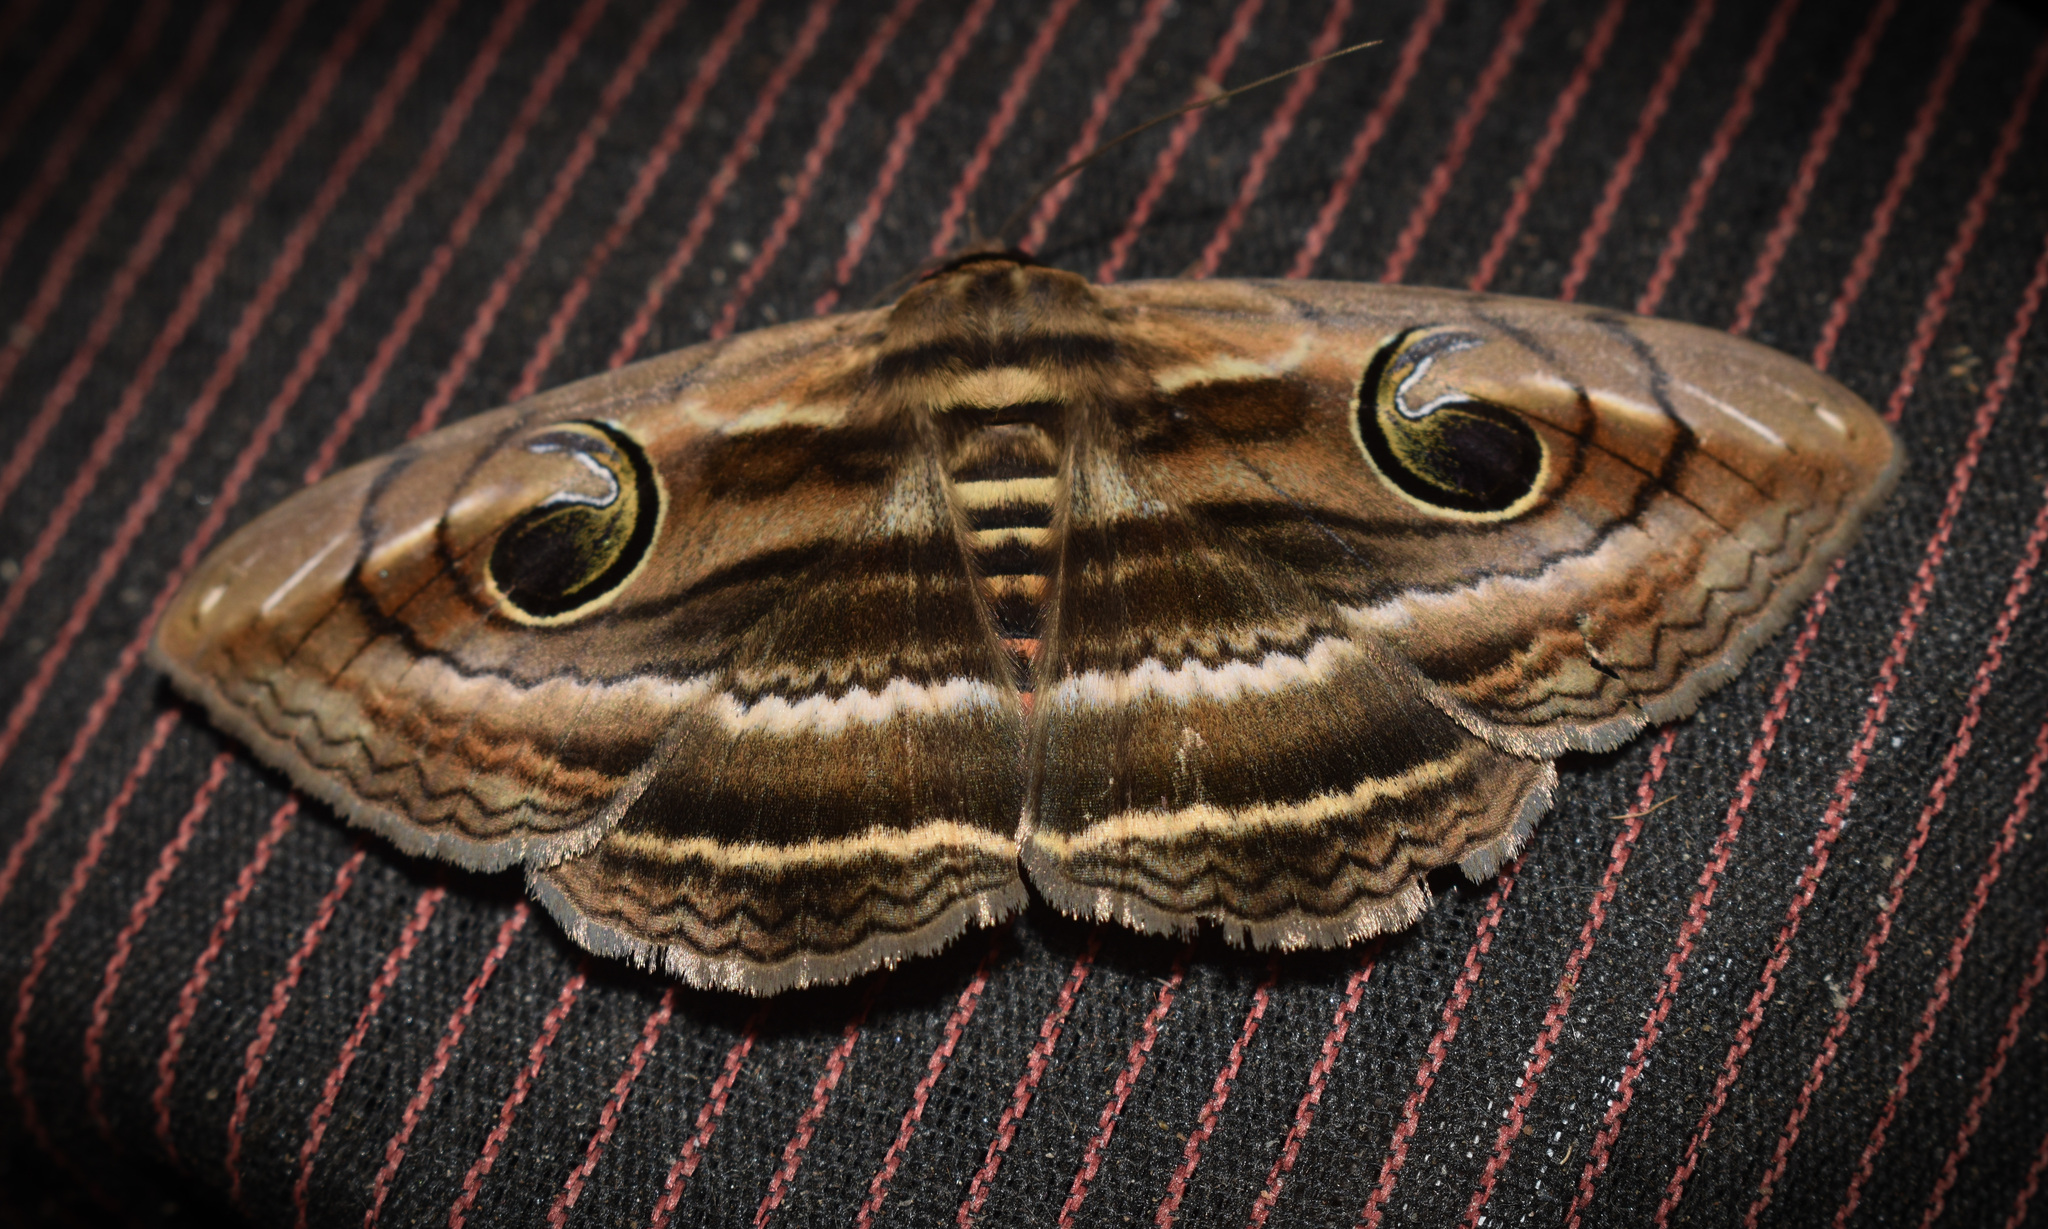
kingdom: Animalia
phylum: Arthropoda
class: Insecta
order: Lepidoptera
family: Erebidae
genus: Spirama
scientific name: Spirama retorta
